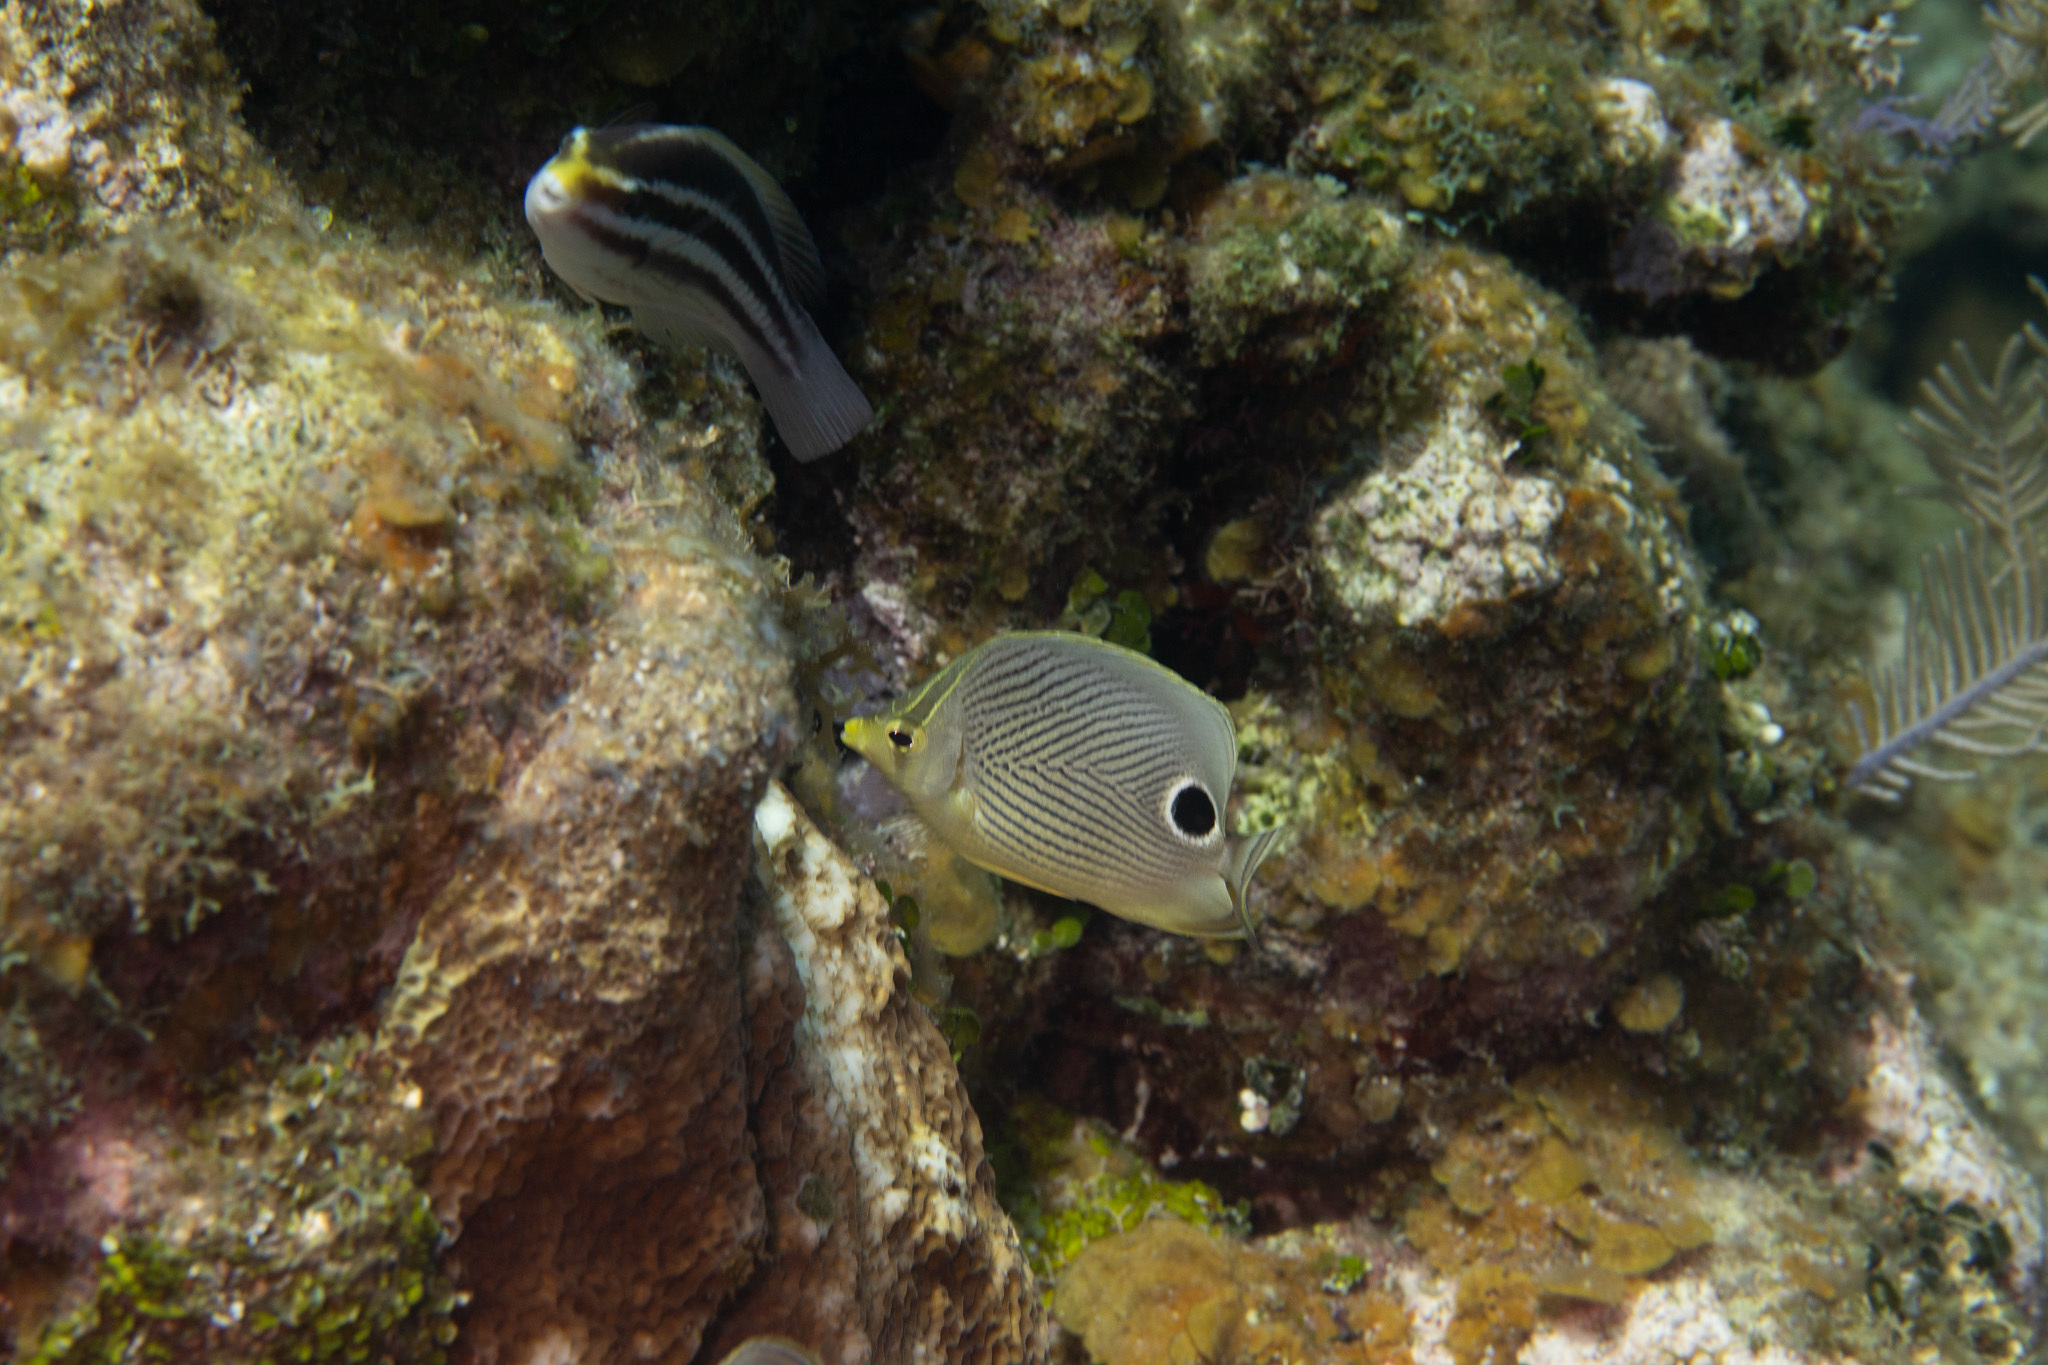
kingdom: Animalia
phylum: Chordata
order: Perciformes
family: Chaetodontidae
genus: Chaetodon
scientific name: Chaetodon capistratus
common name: Kete
